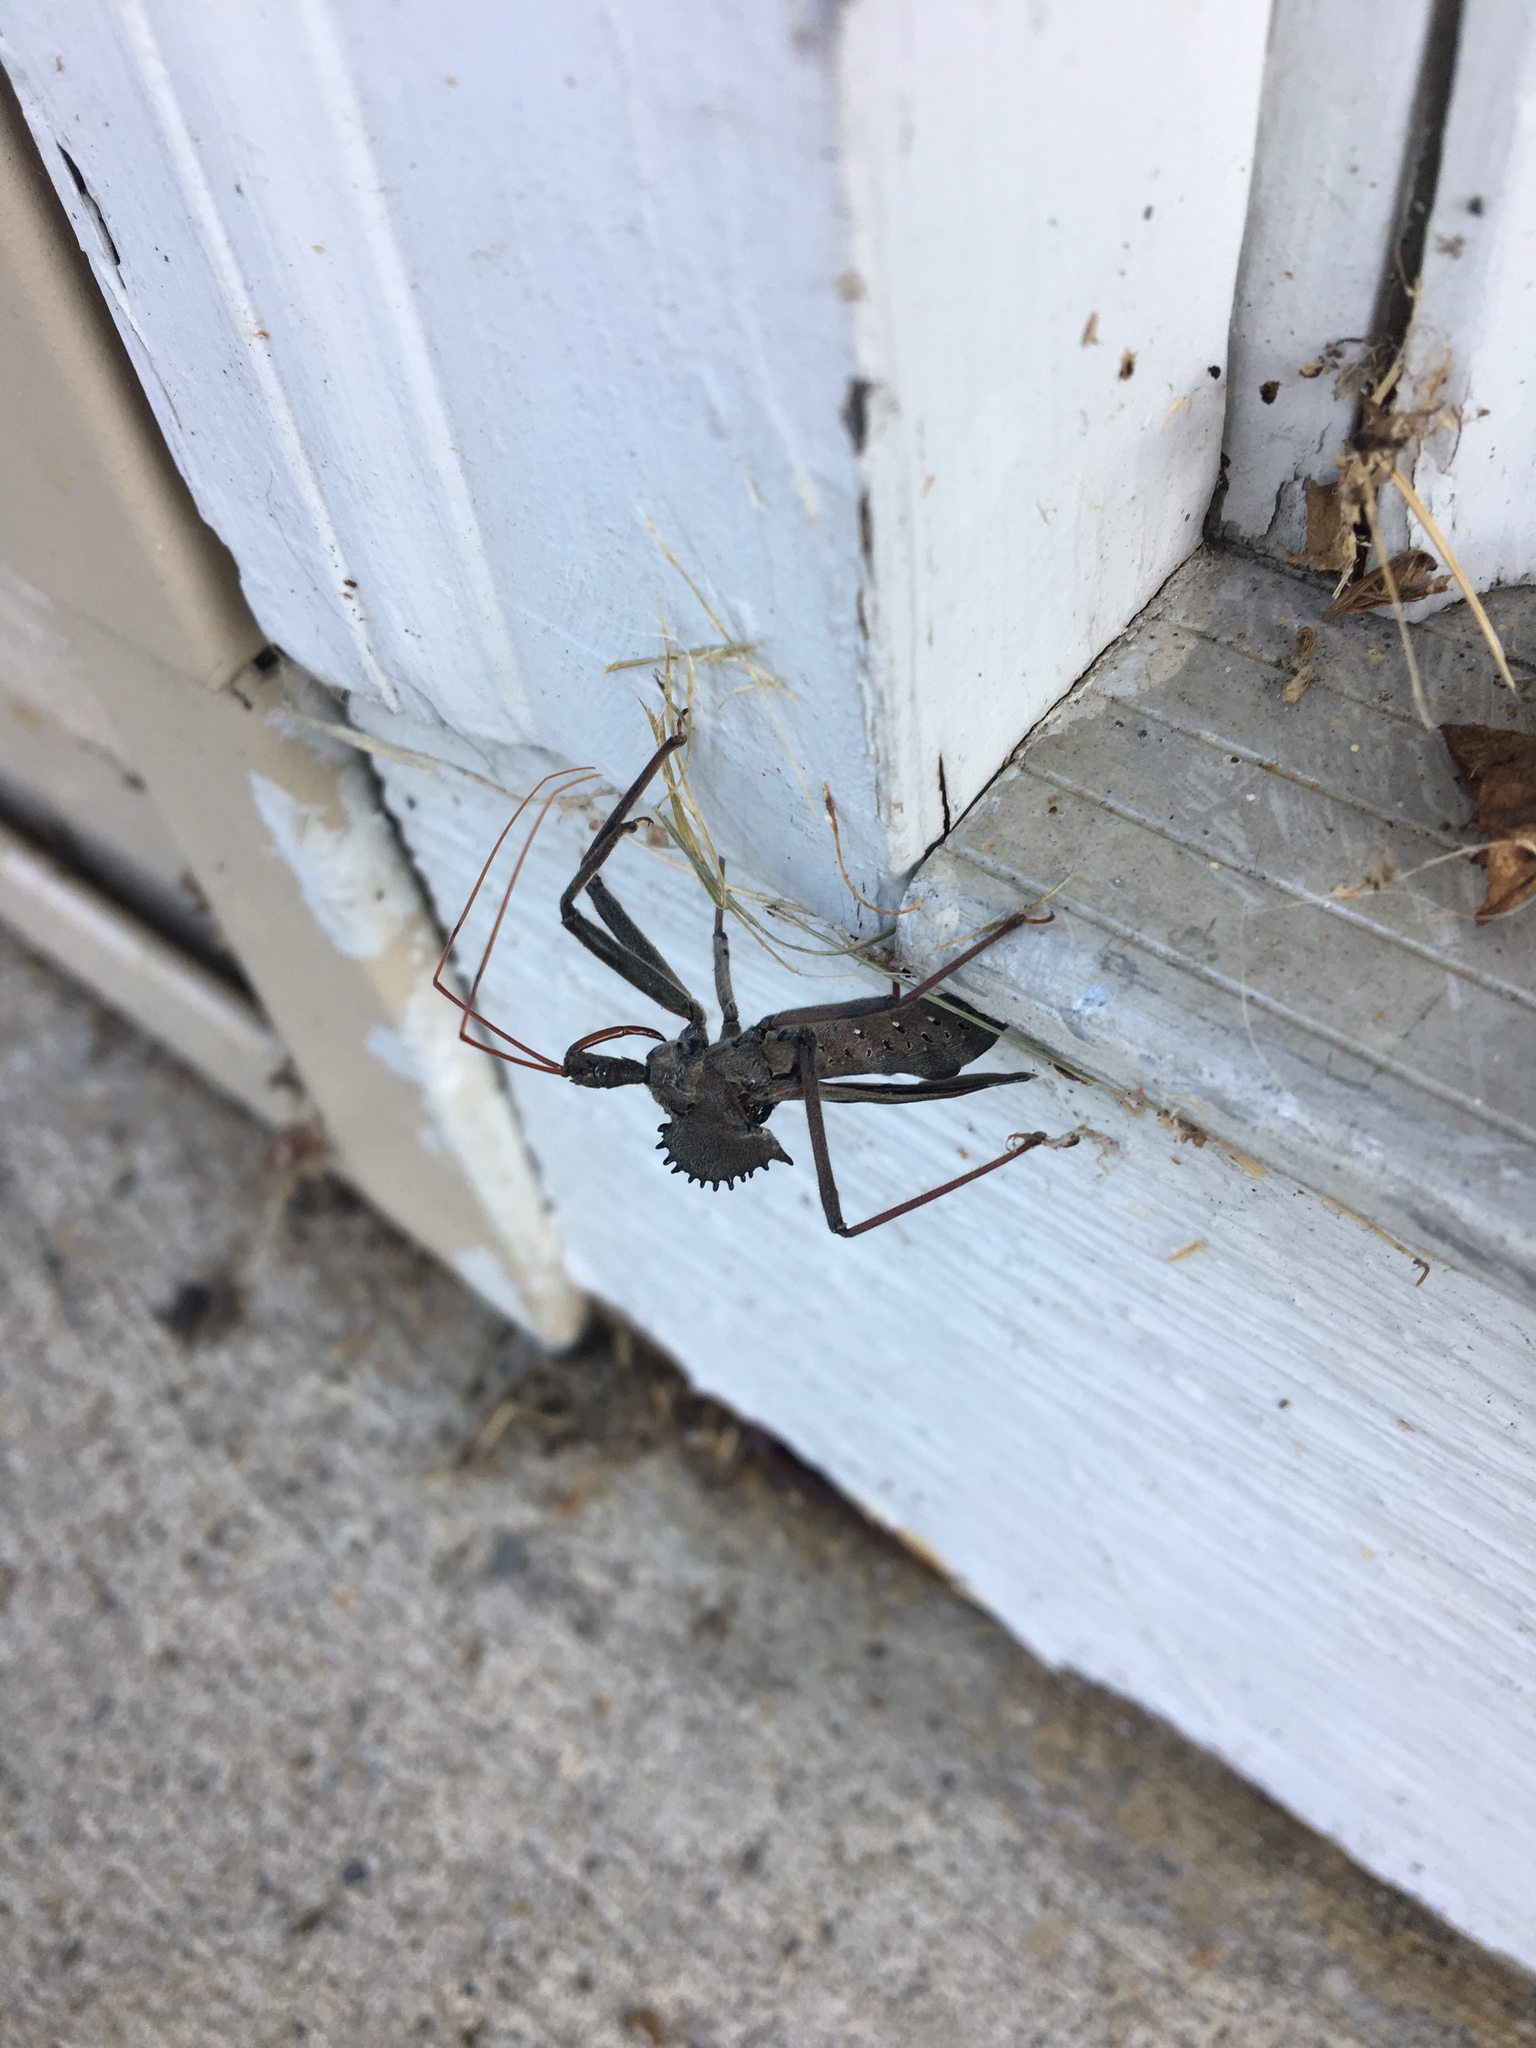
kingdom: Animalia
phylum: Arthropoda
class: Insecta
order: Hemiptera
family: Reduviidae
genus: Arilus
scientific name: Arilus cristatus
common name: North american wheel bug
